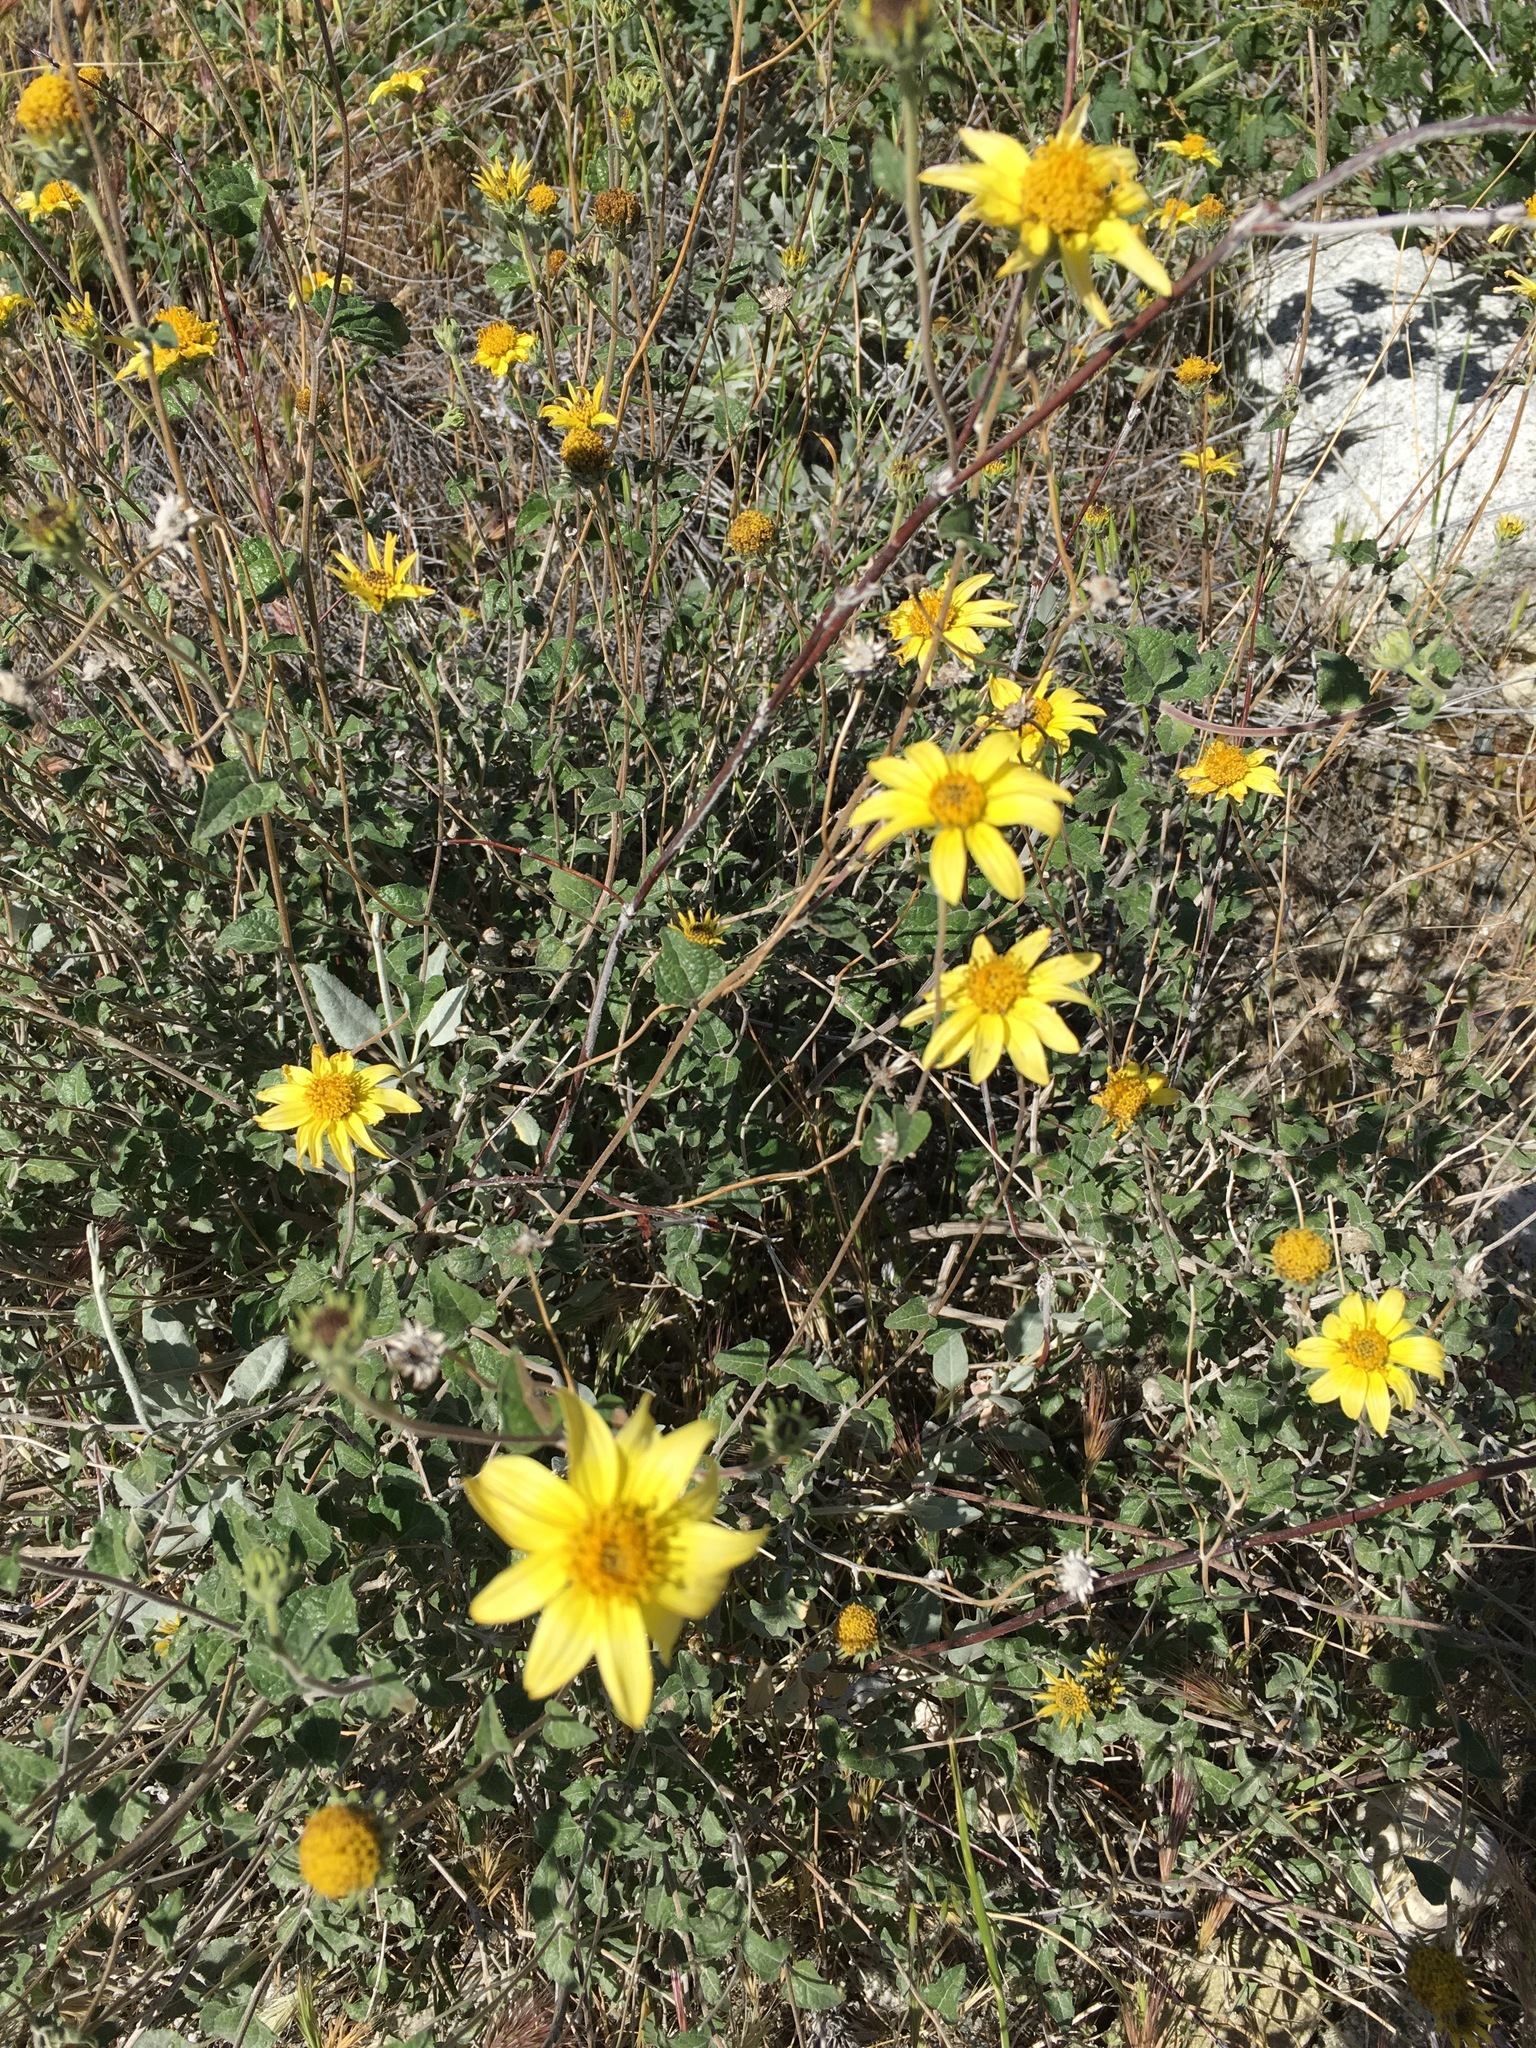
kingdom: Plantae
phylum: Tracheophyta
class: Magnoliopsida
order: Asterales
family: Asteraceae
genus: Bahiopsis
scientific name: Bahiopsis parishii
